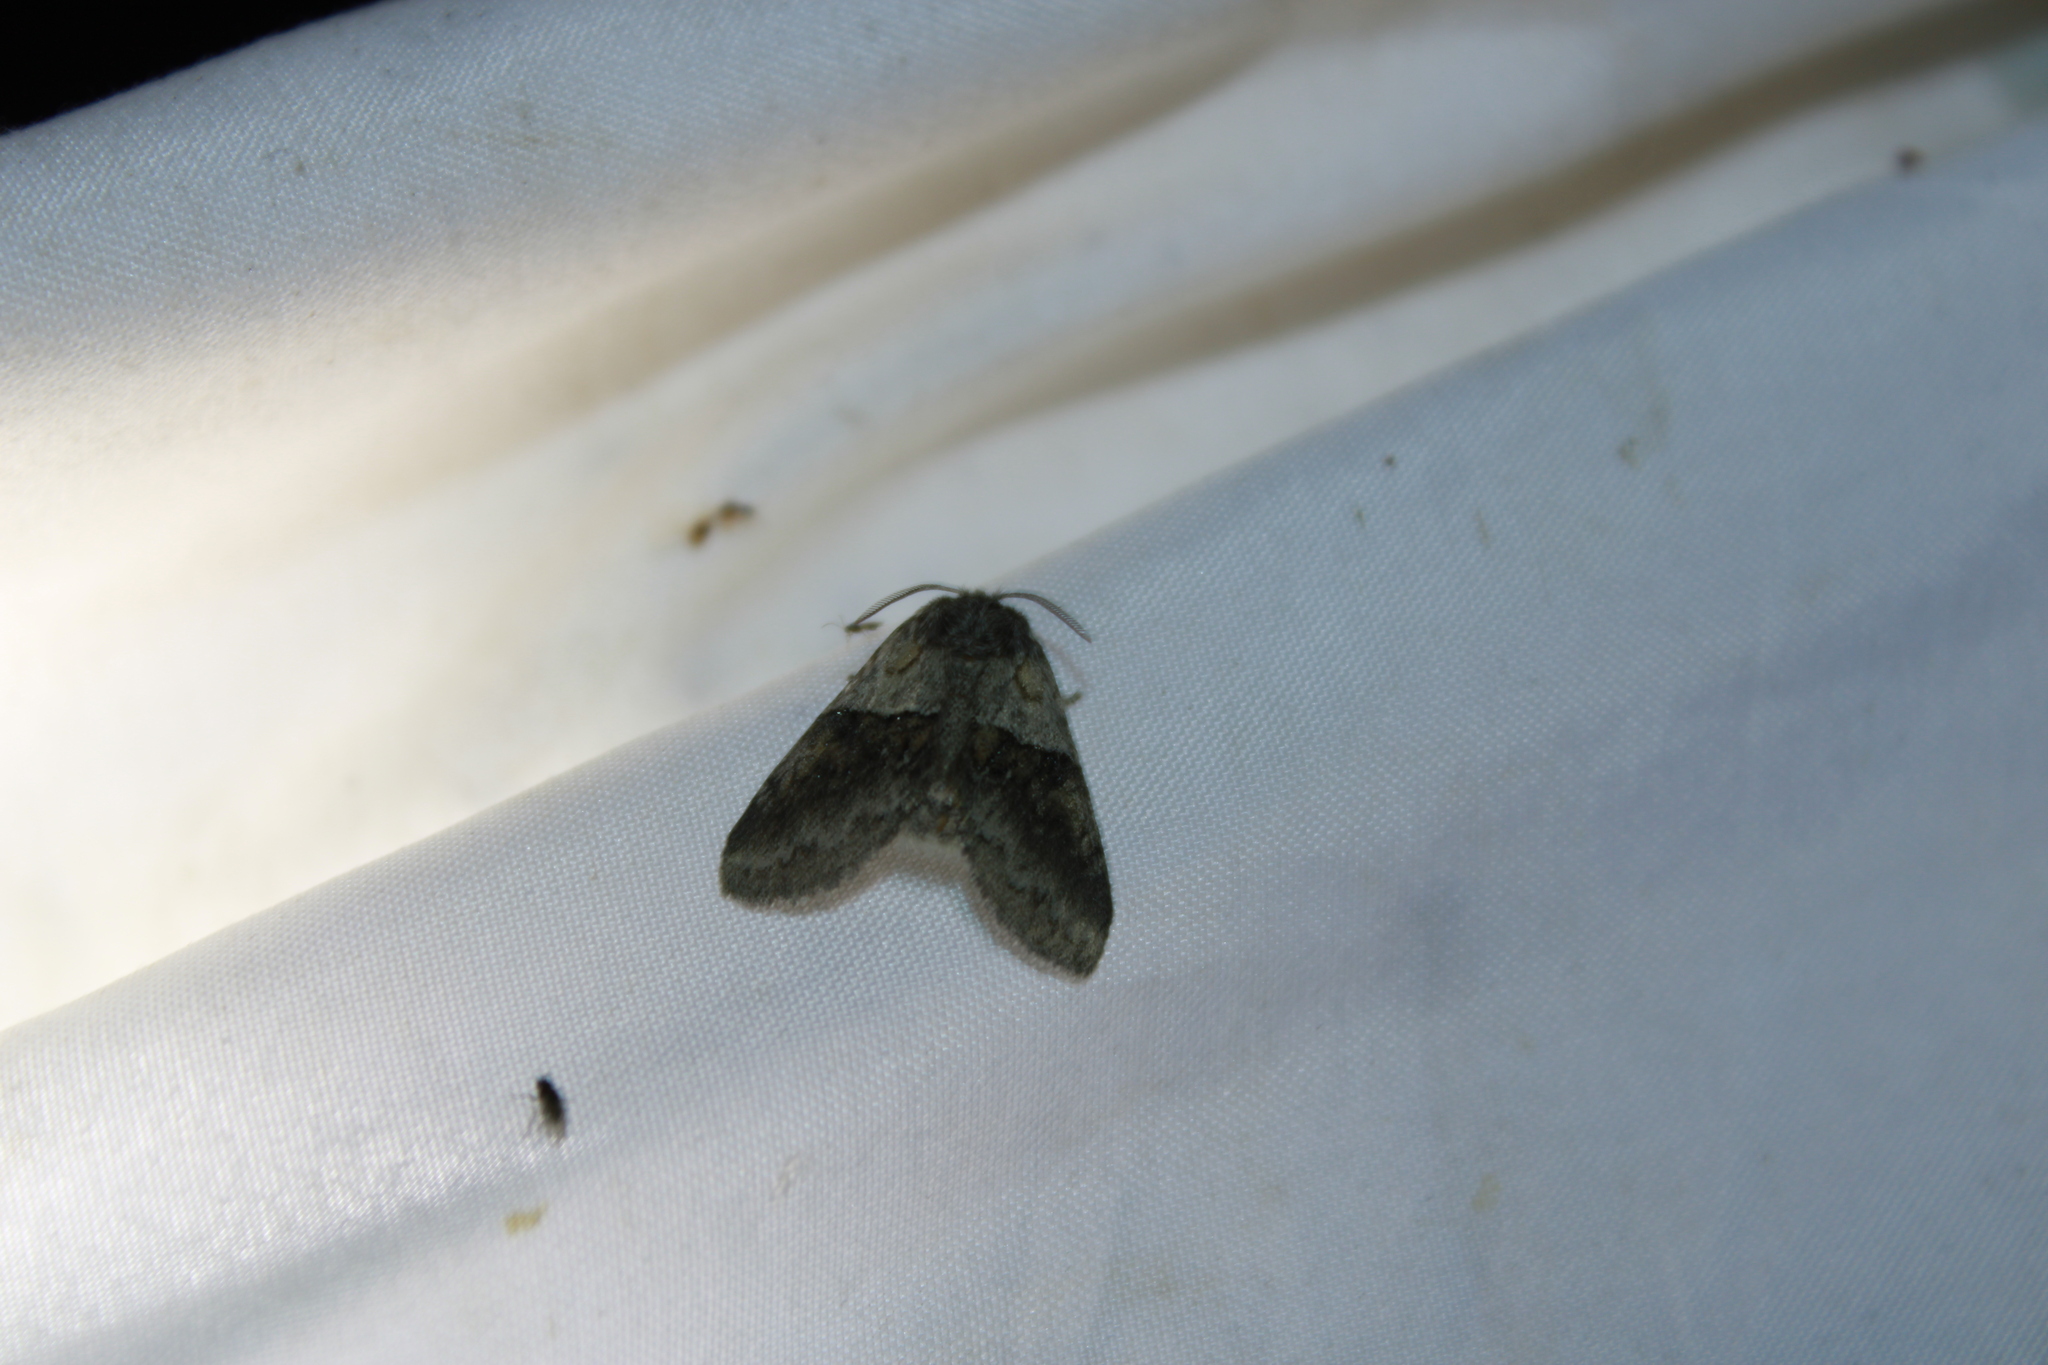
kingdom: Animalia
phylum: Arthropoda
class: Insecta
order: Lepidoptera
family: Notodontidae
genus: Gluphisia
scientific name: Gluphisia septentrionis
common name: Common gluphisia
